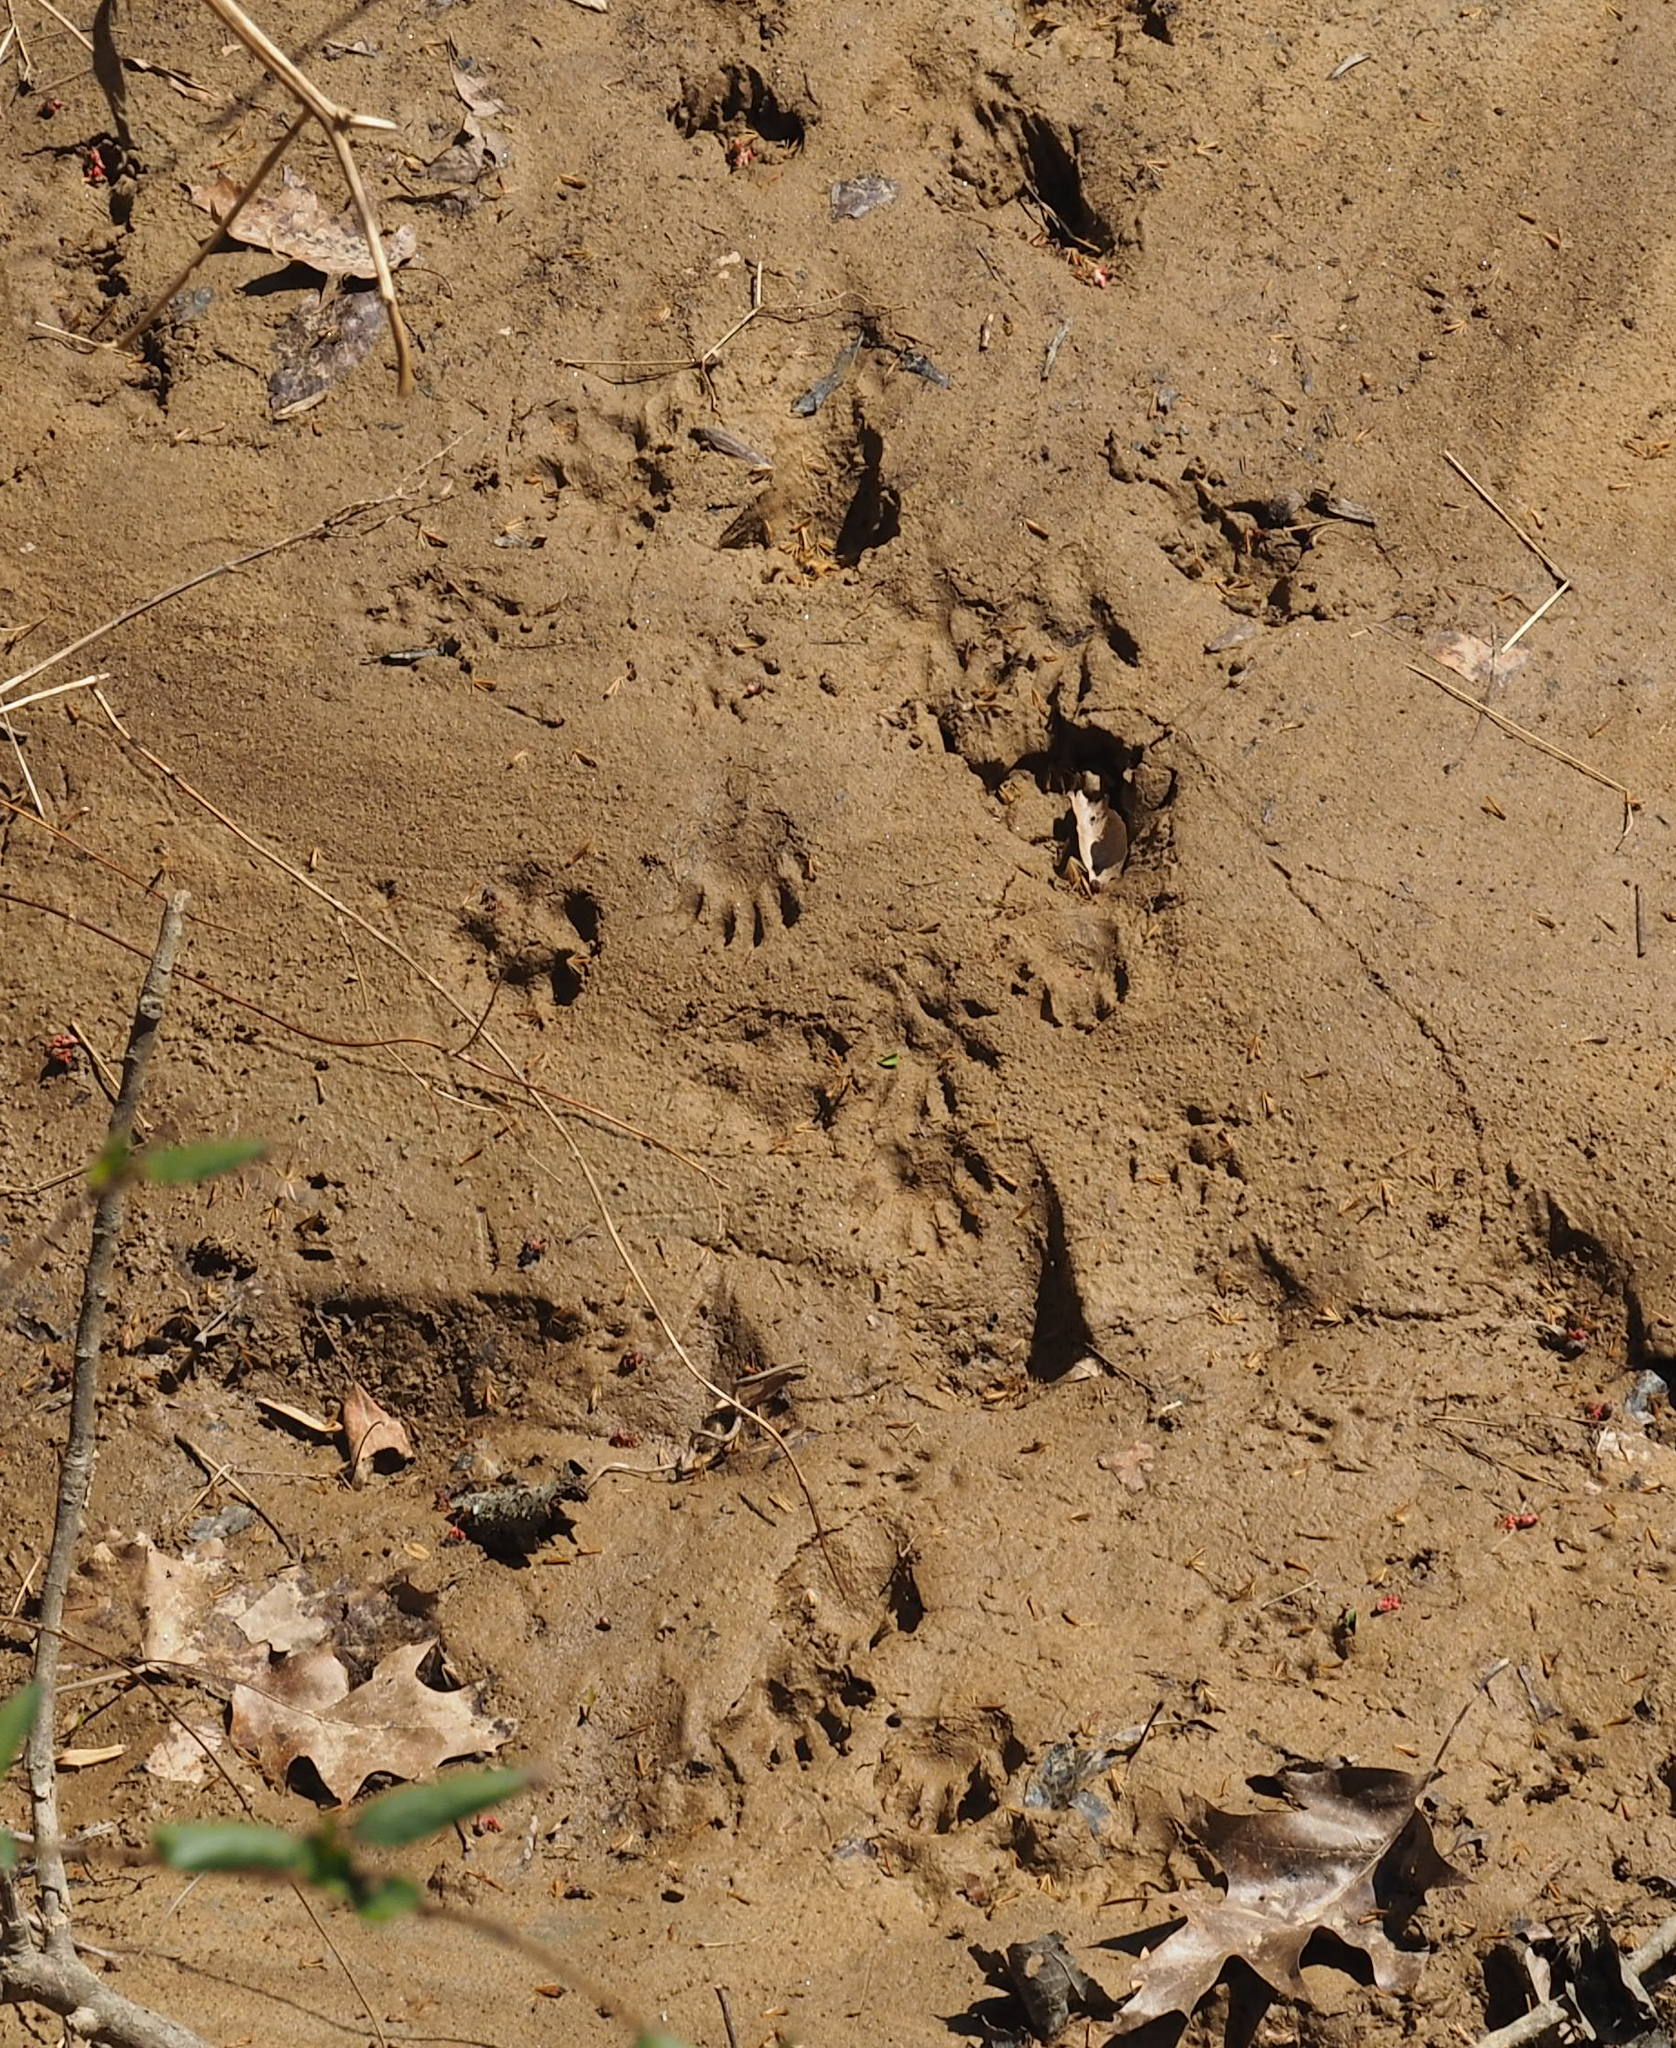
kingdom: Animalia
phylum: Chordata
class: Mammalia
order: Carnivora
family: Procyonidae
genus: Procyon
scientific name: Procyon lotor
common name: Raccoon
